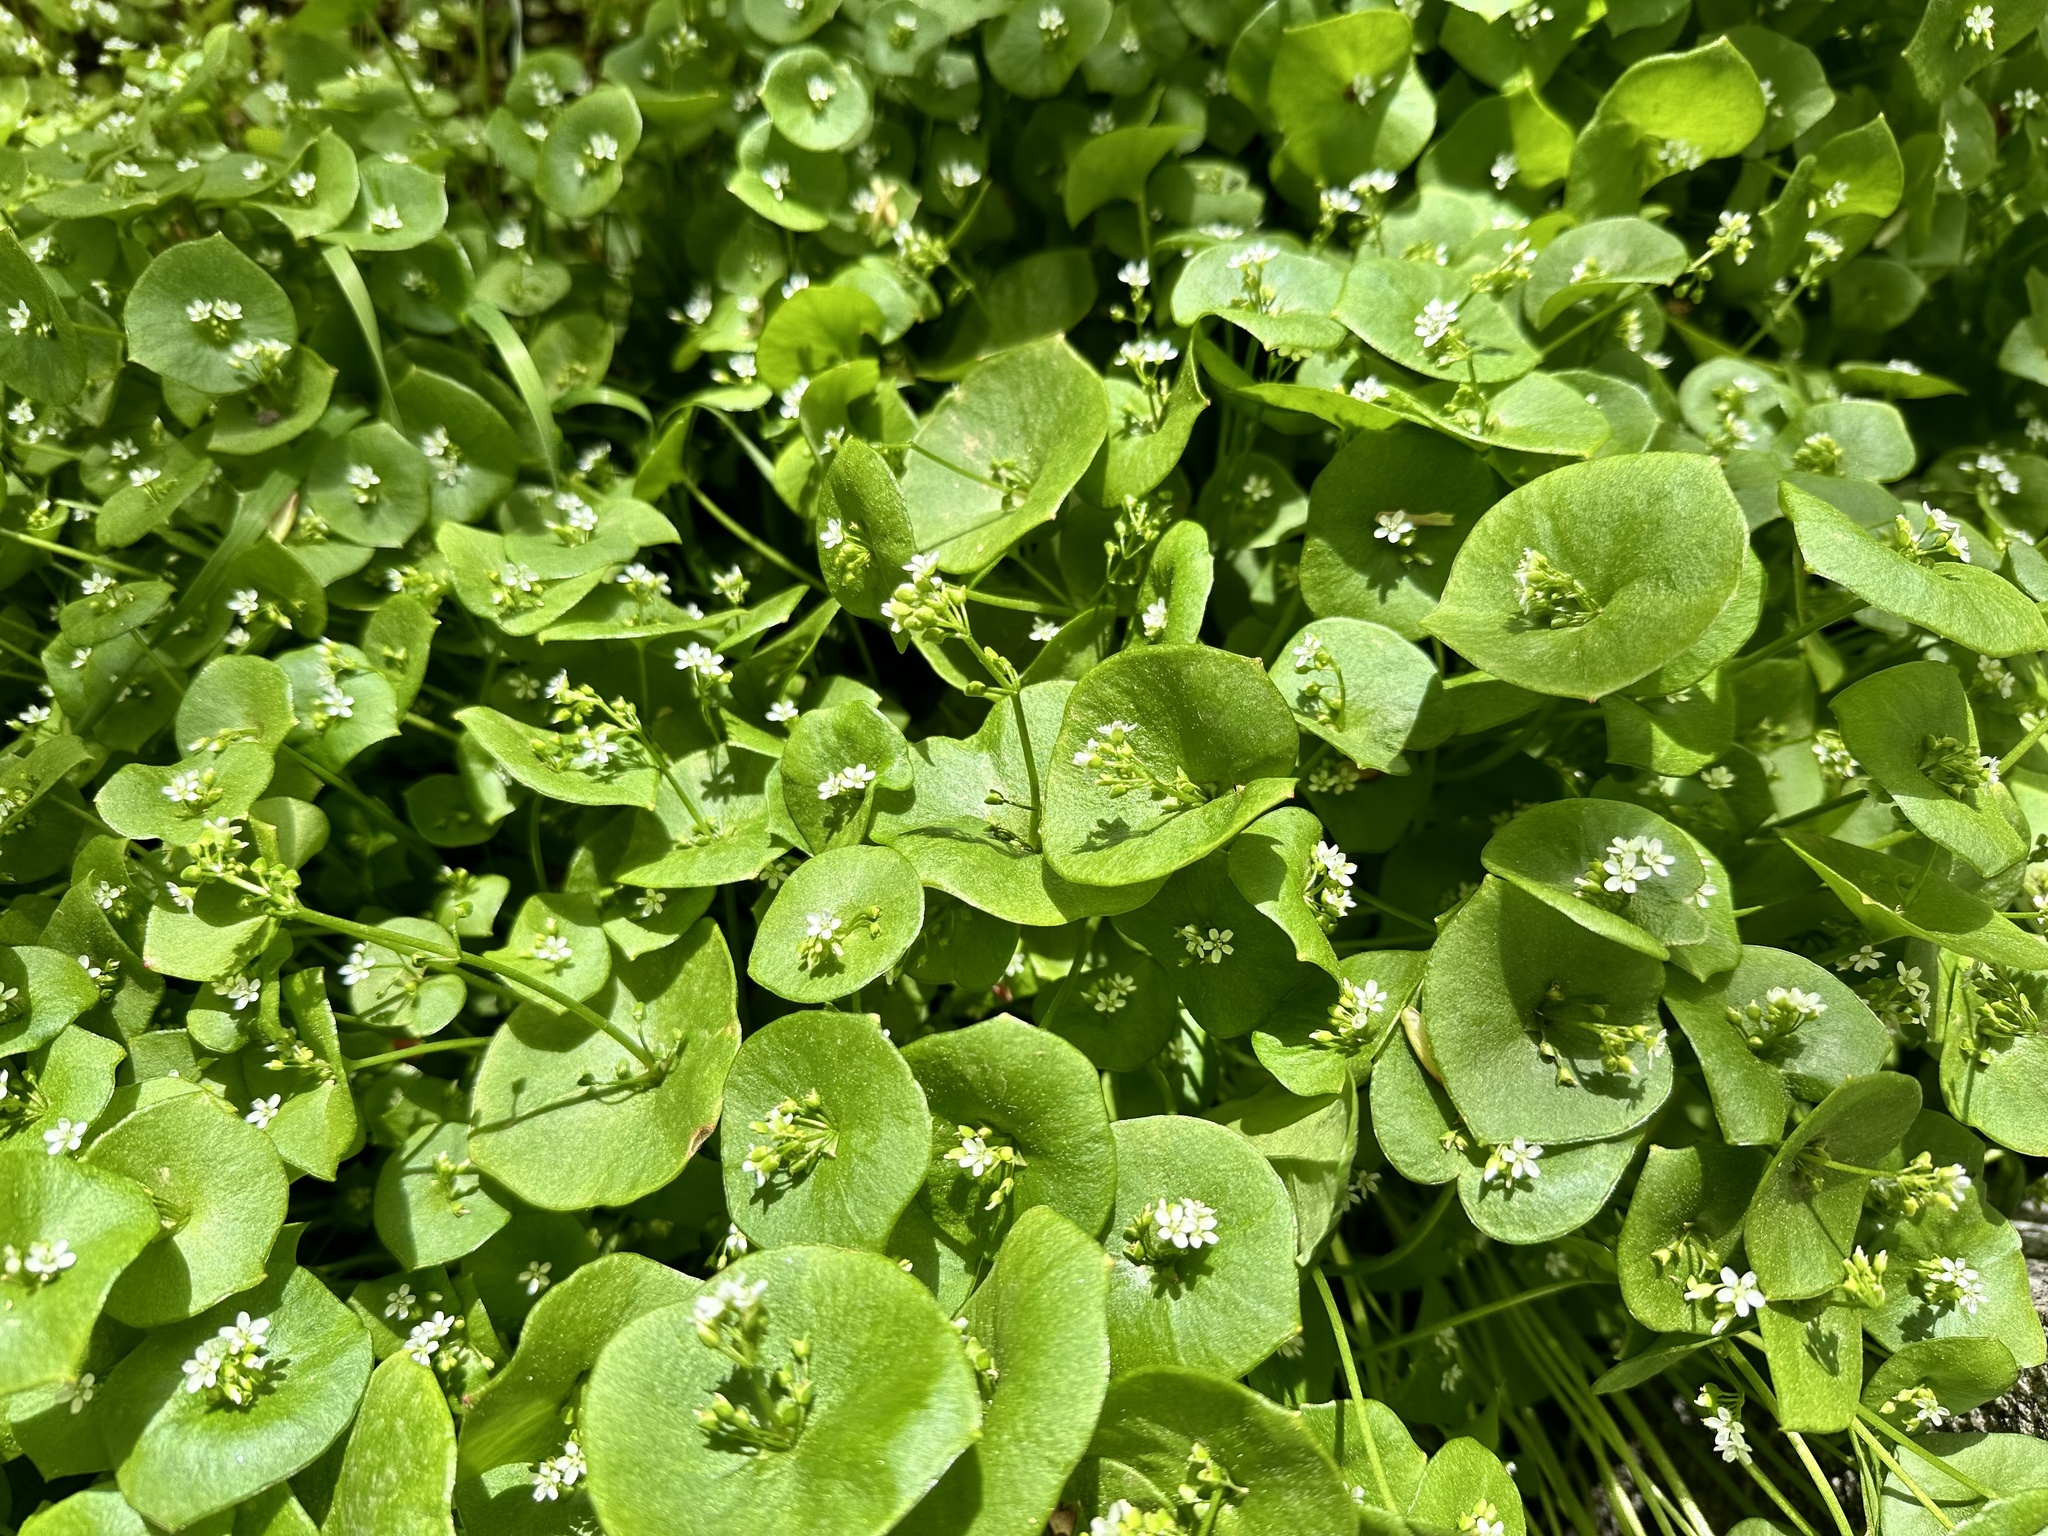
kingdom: Plantae
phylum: Tracheophyta
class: Magnoliopsida
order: Caryophyllales
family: Montiaceae
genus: Claytonia
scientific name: Claytonia perfoliata
